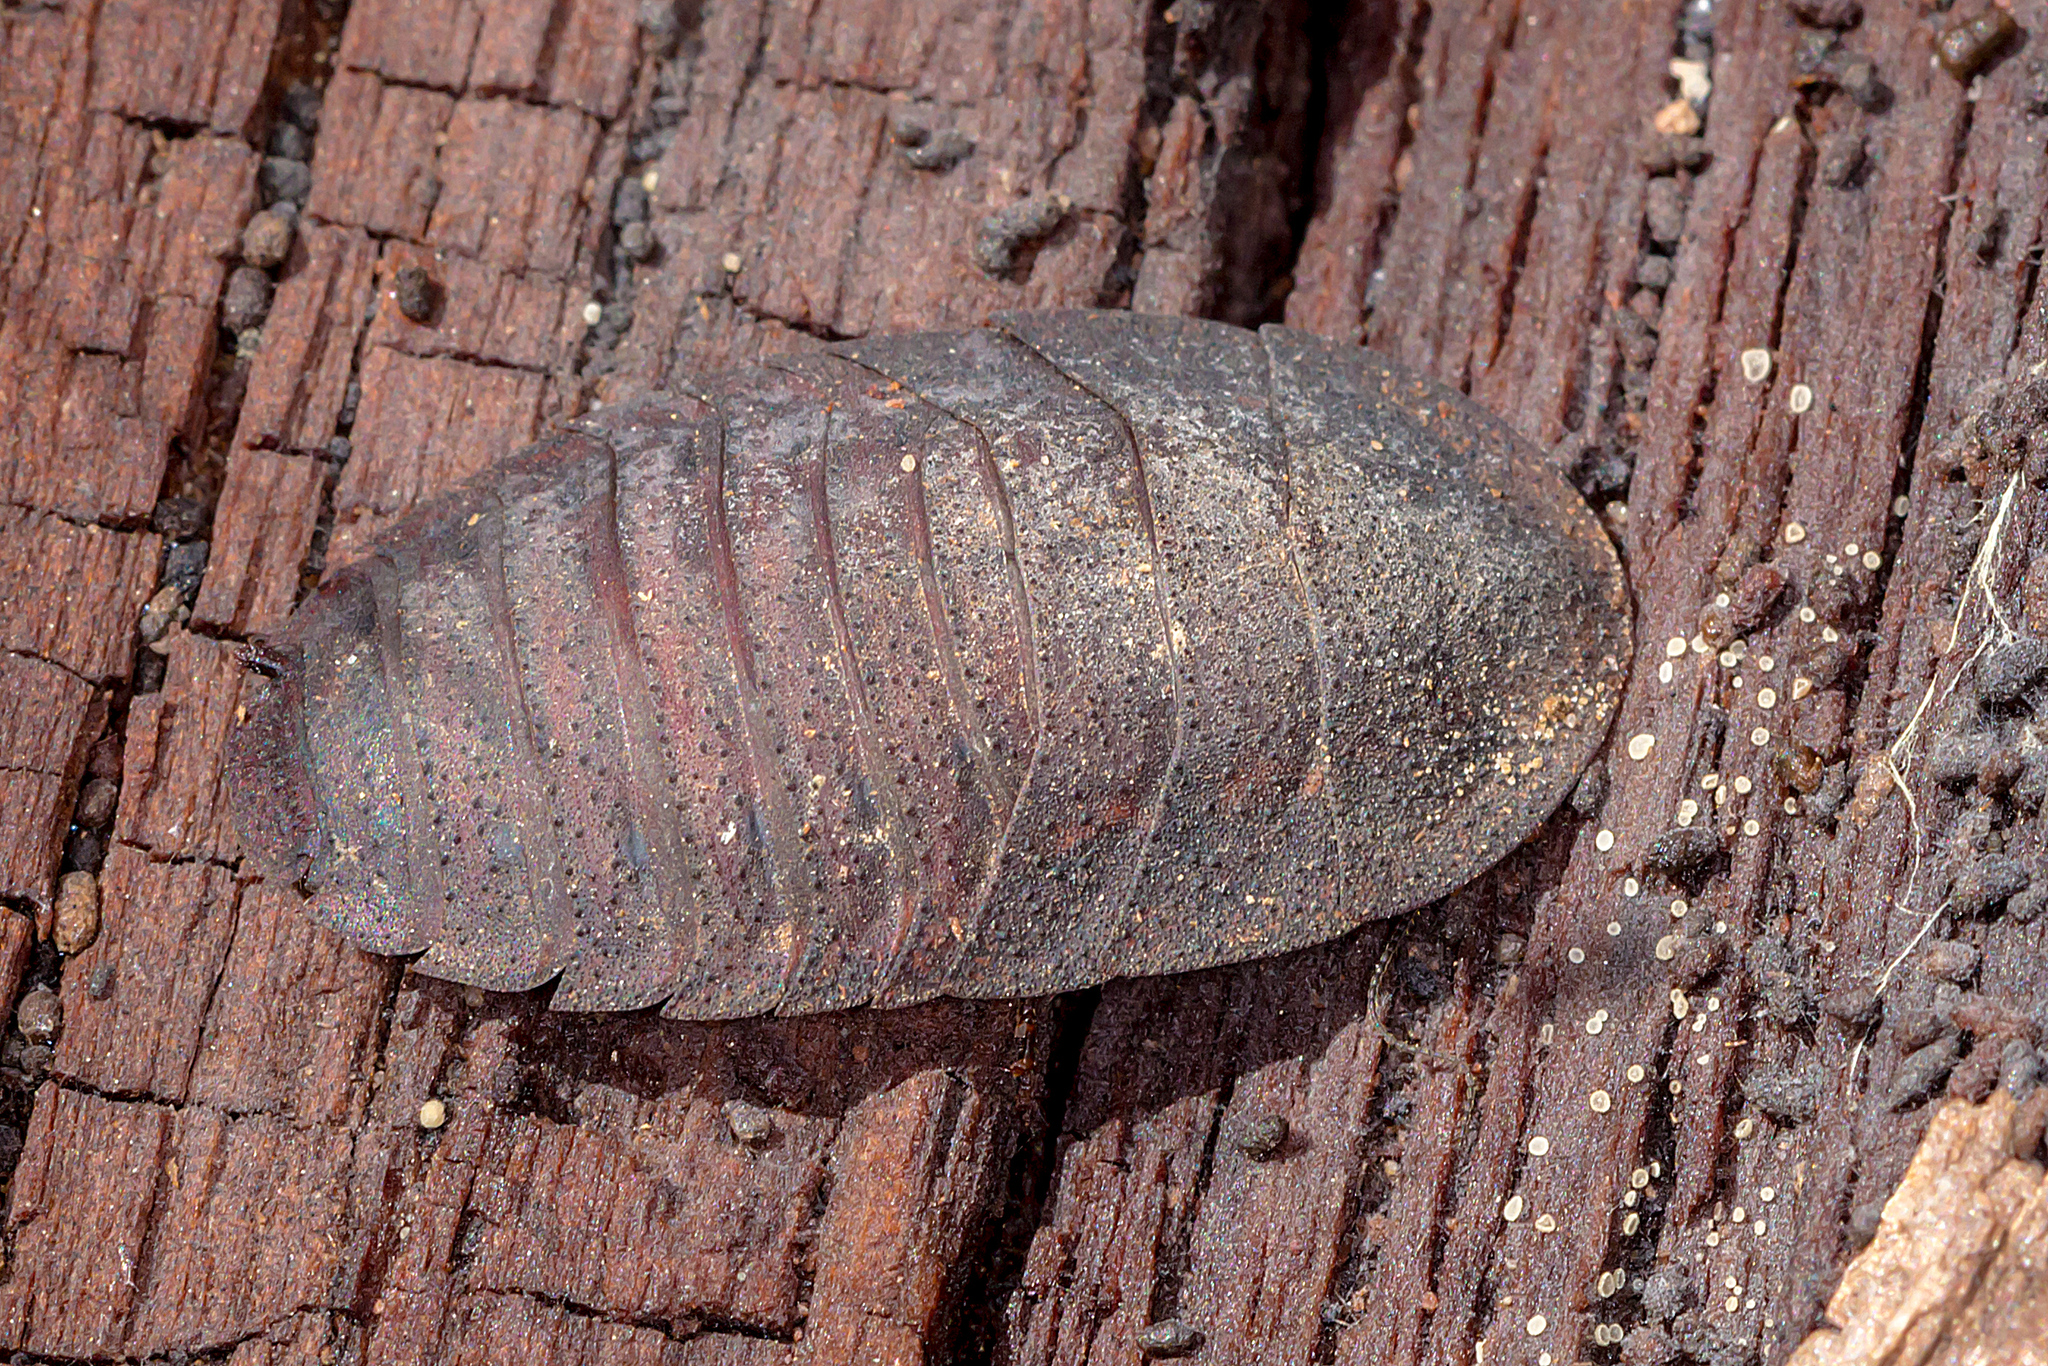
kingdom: Animalia
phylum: Arthropoda
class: Insecta
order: Blattodea
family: Blaberidae
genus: Laxta
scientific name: Laxta granicollis
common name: Bark cockroach
